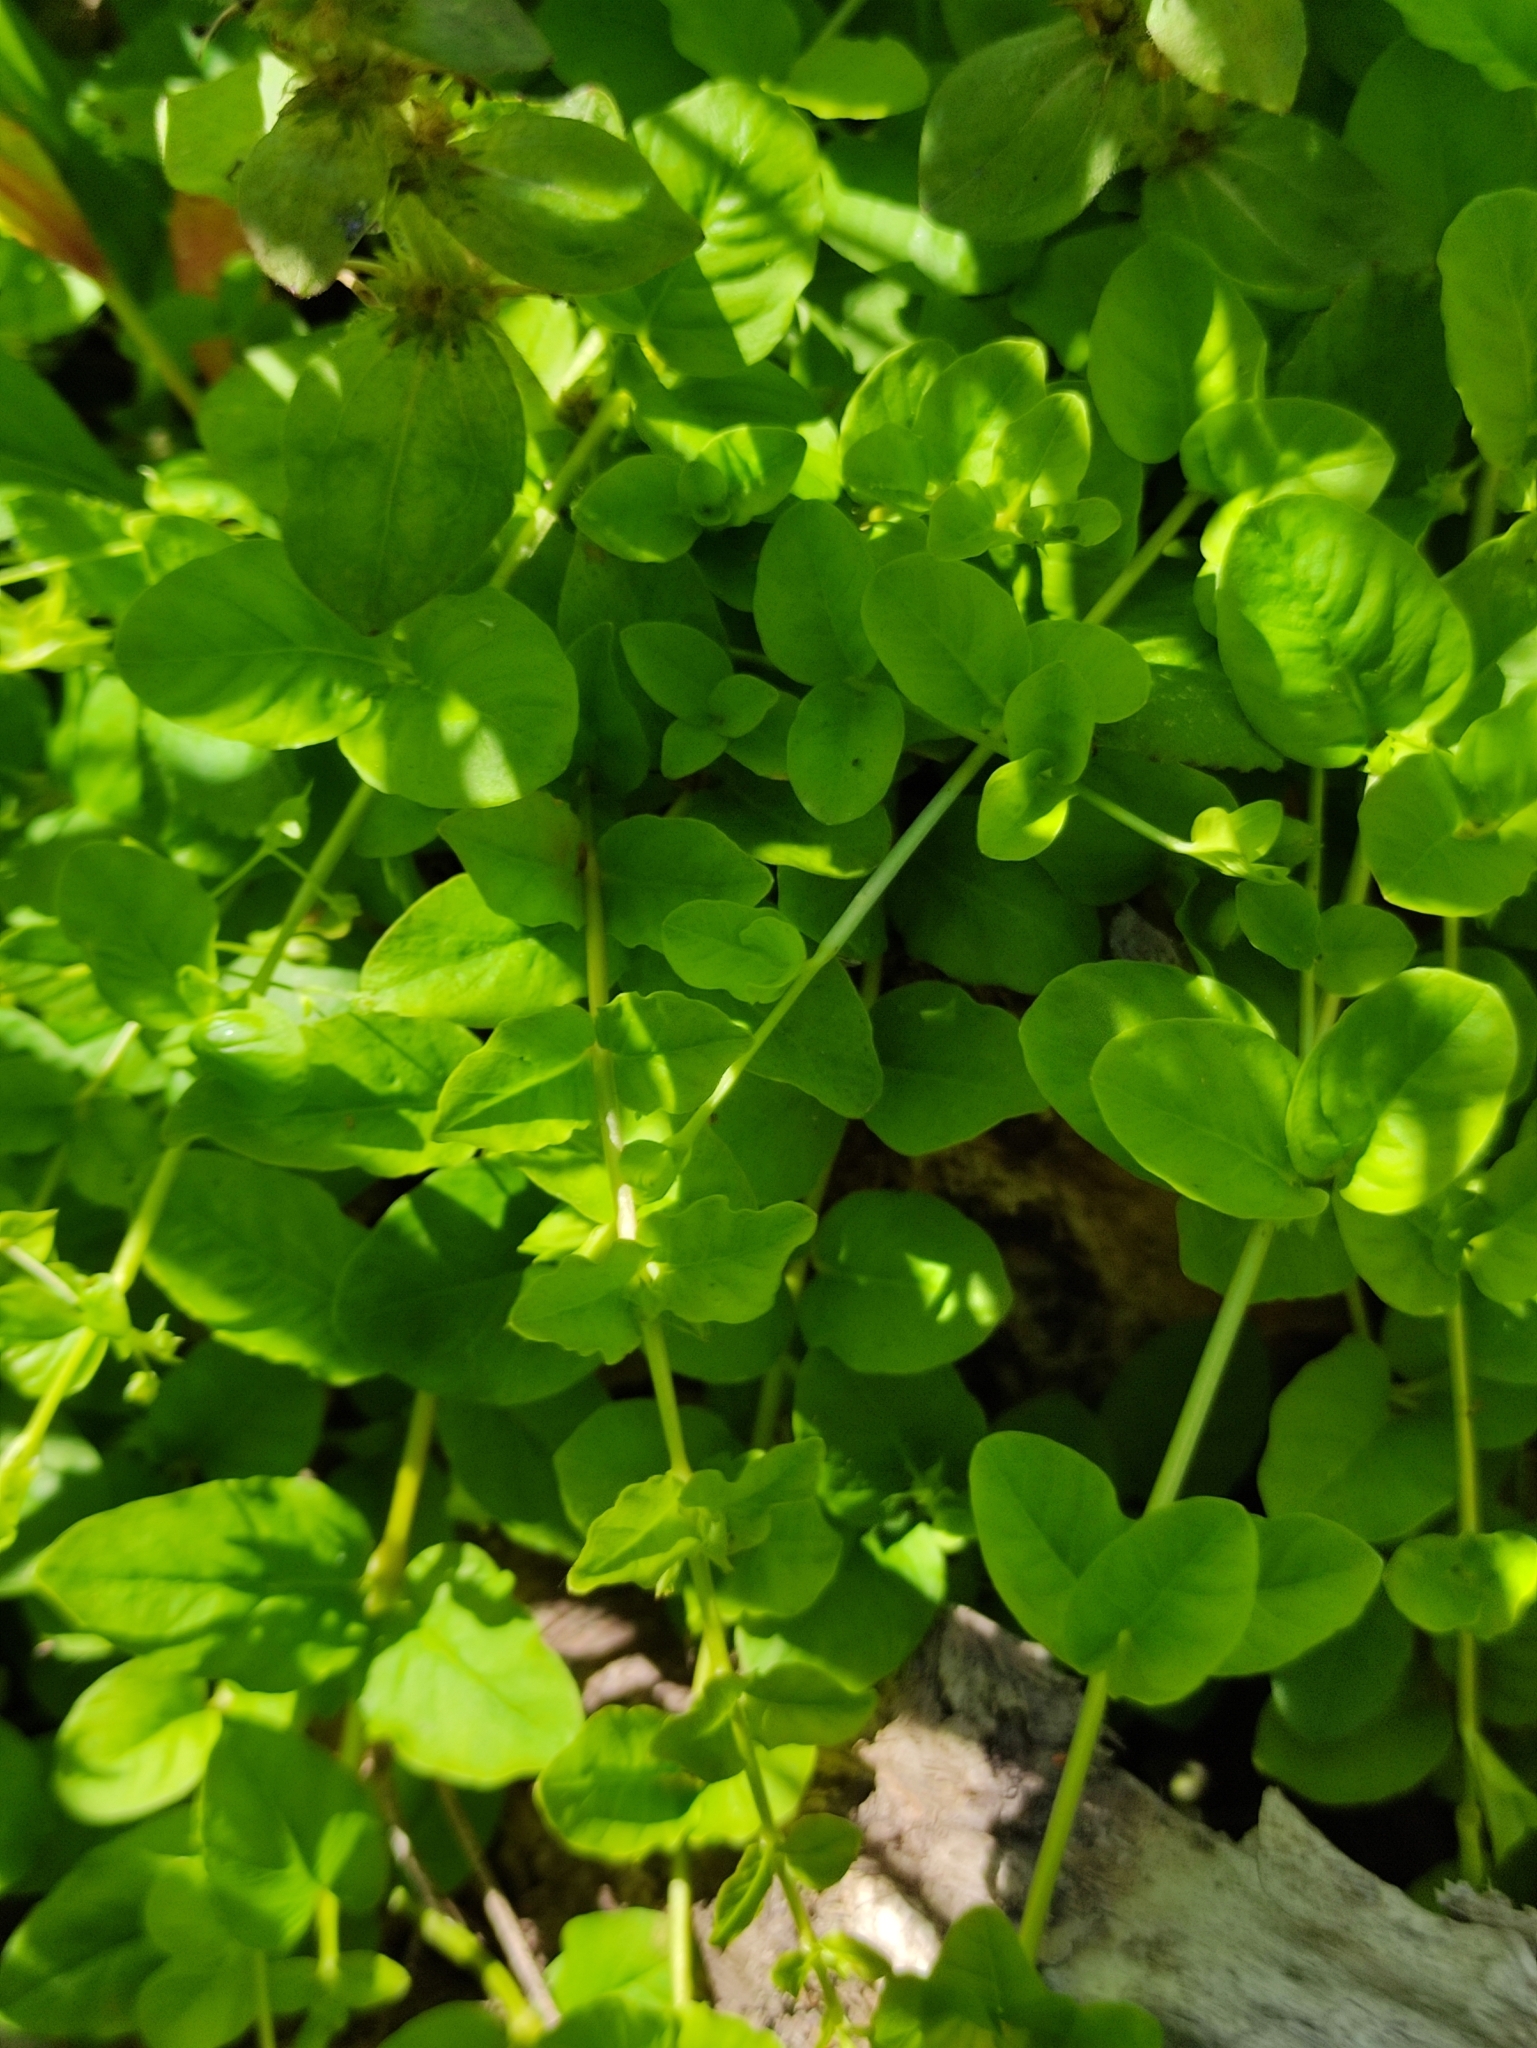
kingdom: Plantae
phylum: Tracheophyta
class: Magnoliopsida
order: Ericales
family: Primulaceae
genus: Lysimachia
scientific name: Lysimachia nummularia
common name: Moneywort
